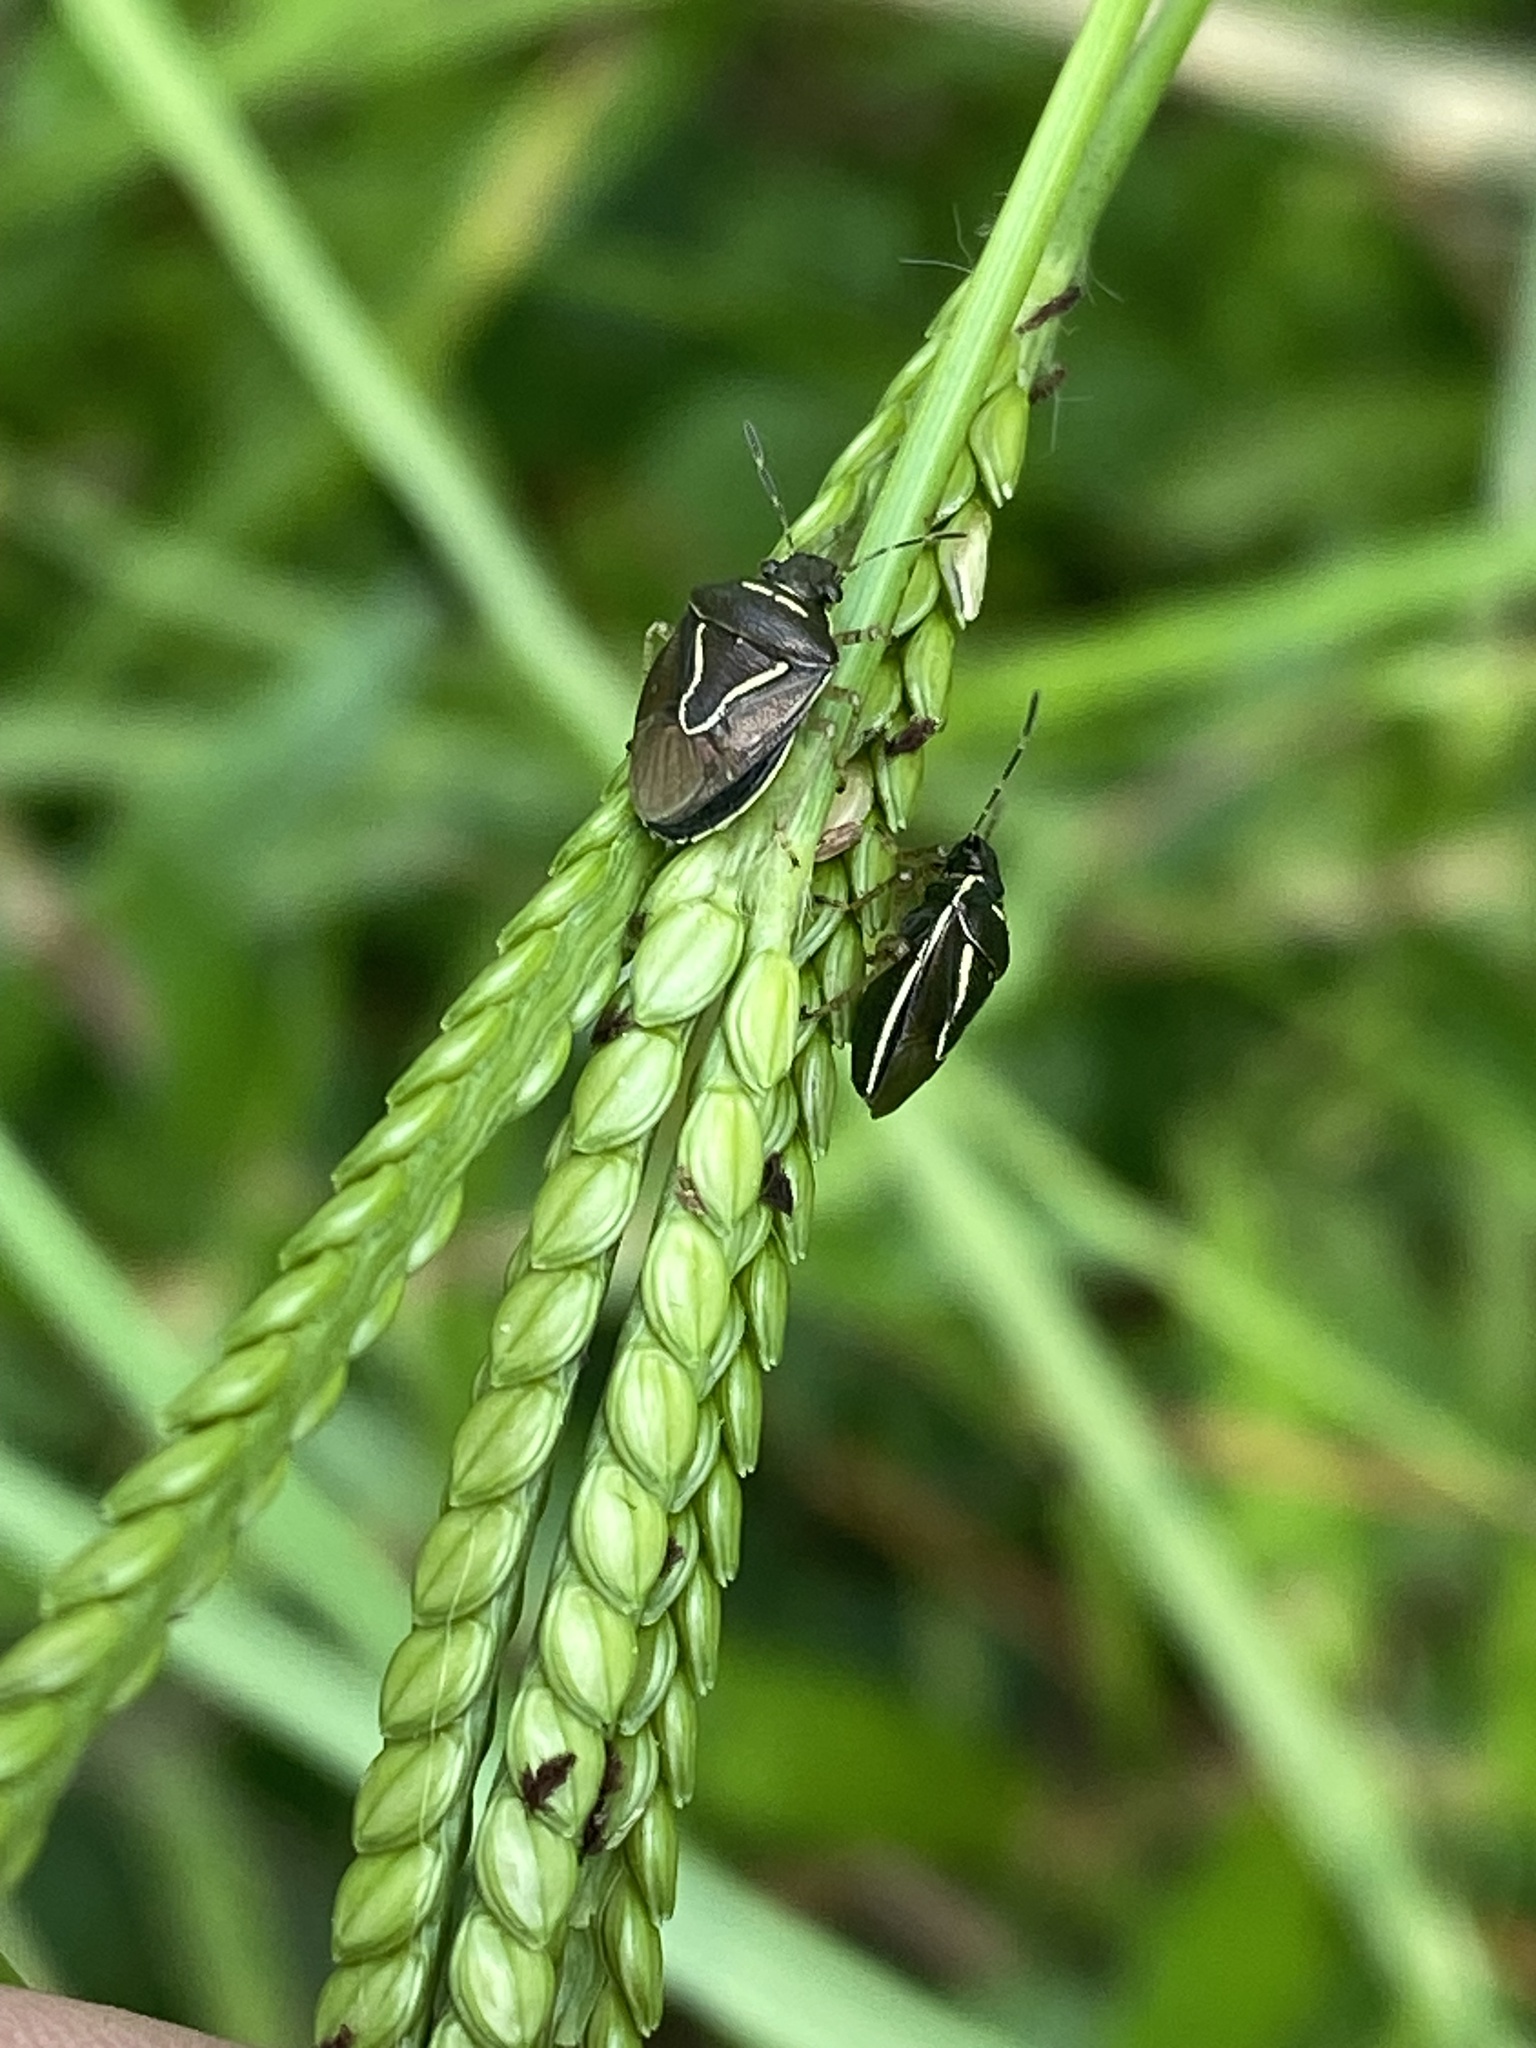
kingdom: Animalia
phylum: Arthropoda
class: Insecta
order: Hemiptera
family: Pentatomidae
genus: Mormidea
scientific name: Mormidea lugens
